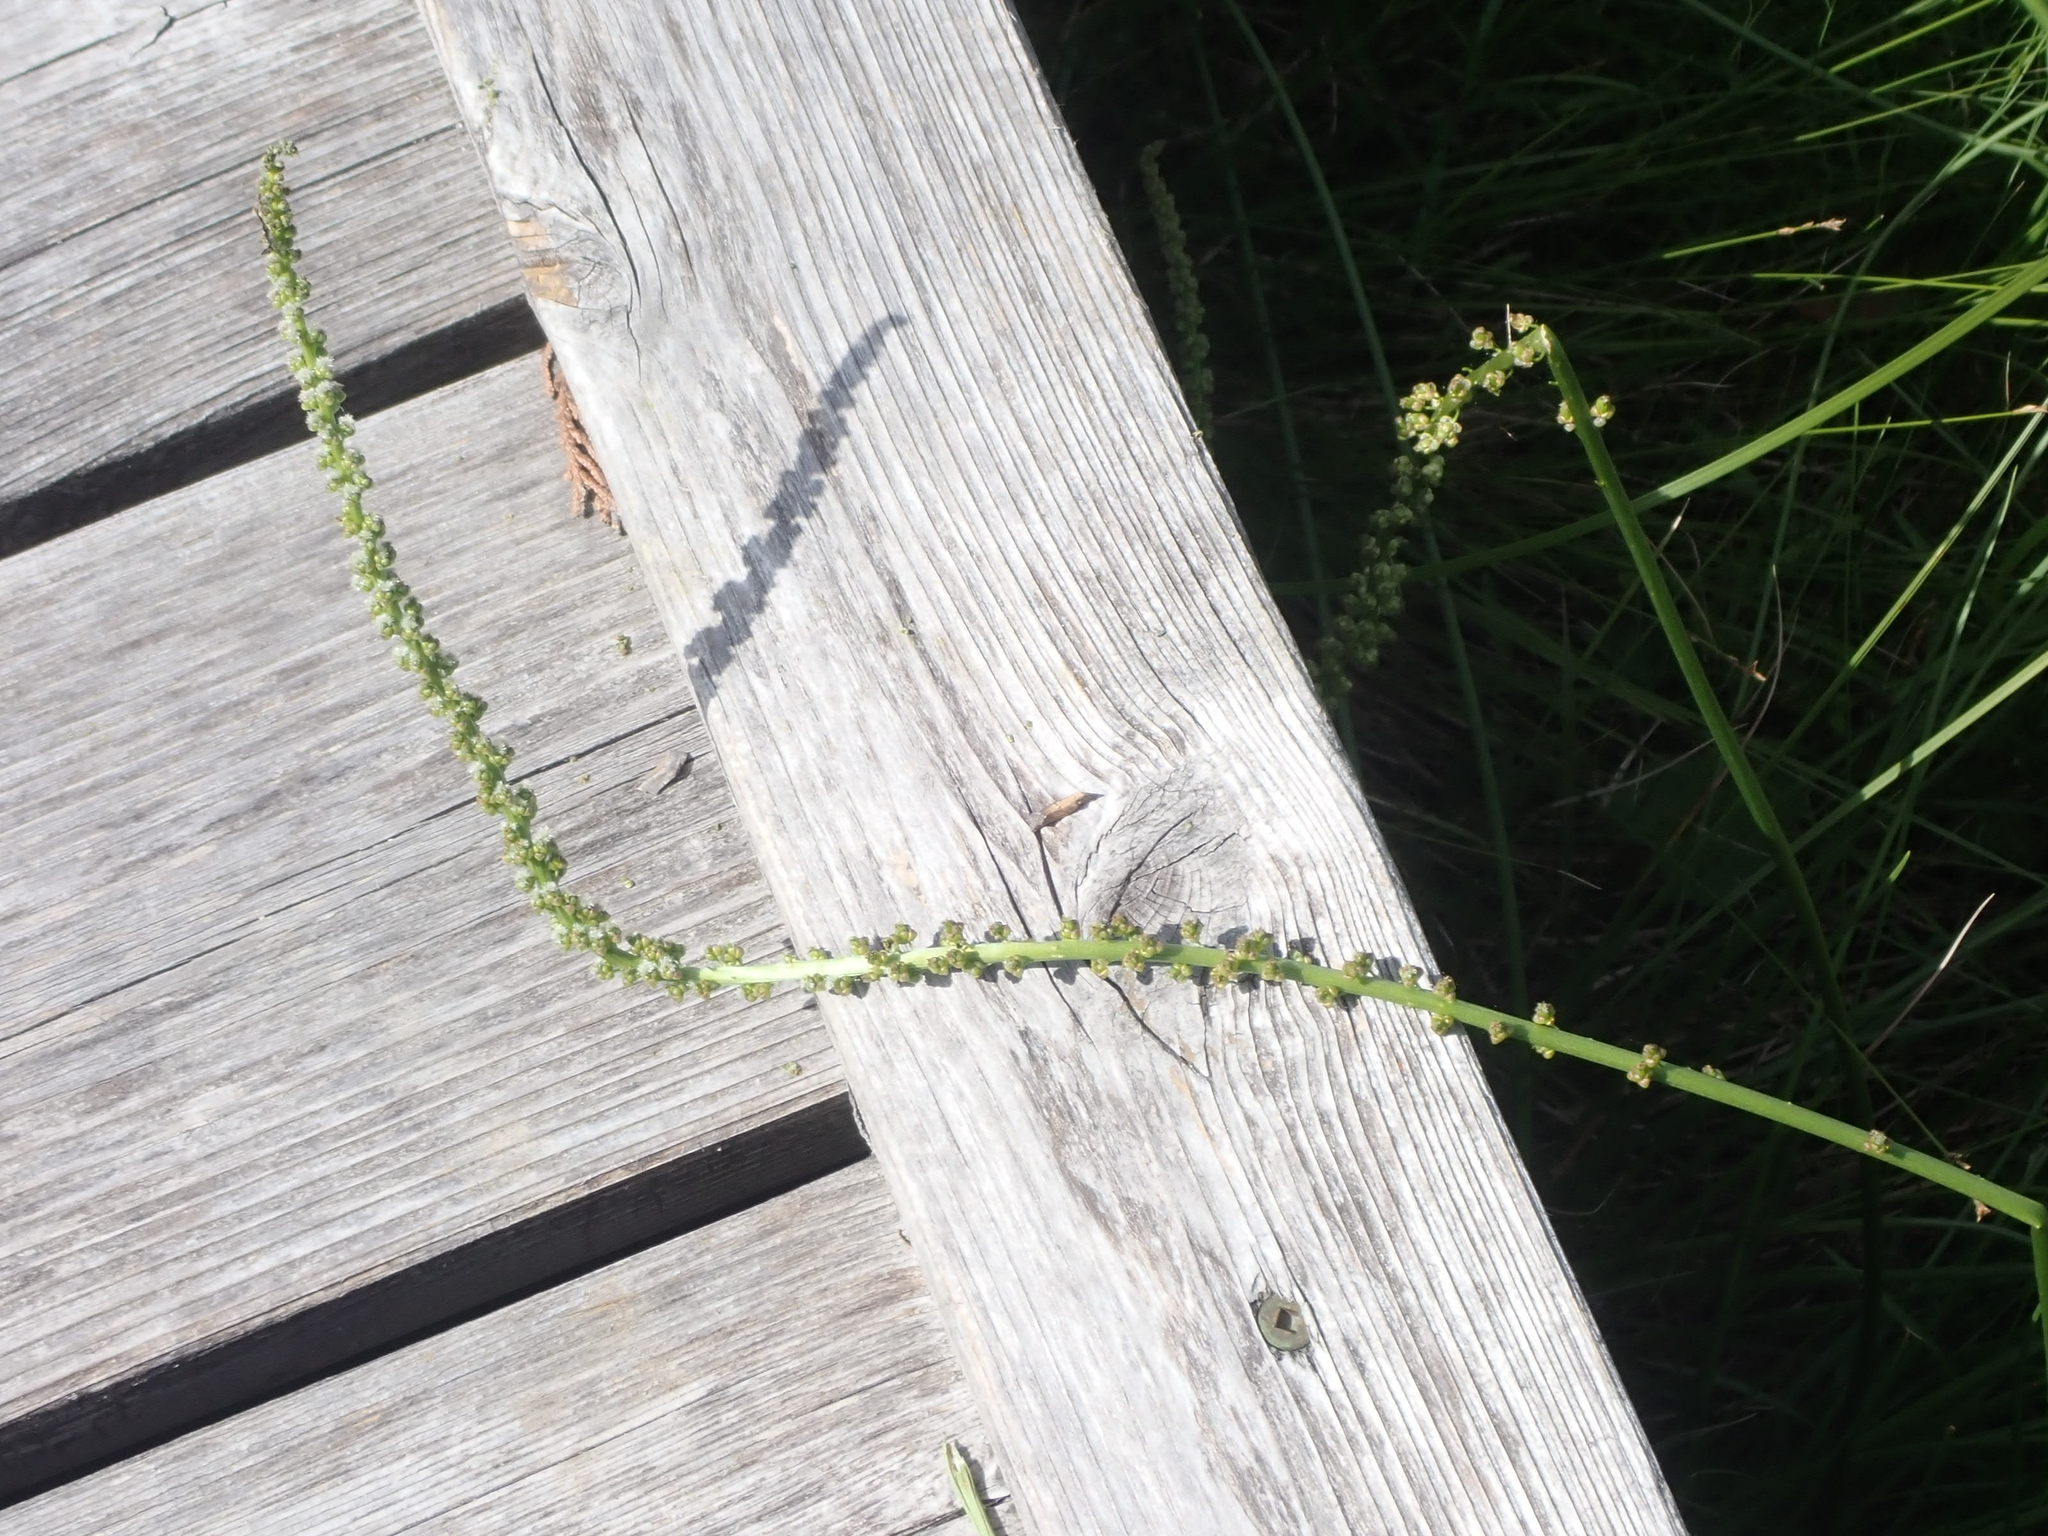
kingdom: Plantae
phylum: Tracheophyta
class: Liliopsida
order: Alismatales
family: Juncaginaceae
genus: Triglochin
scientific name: Triglochin maritima
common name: Sea arrowgrass
